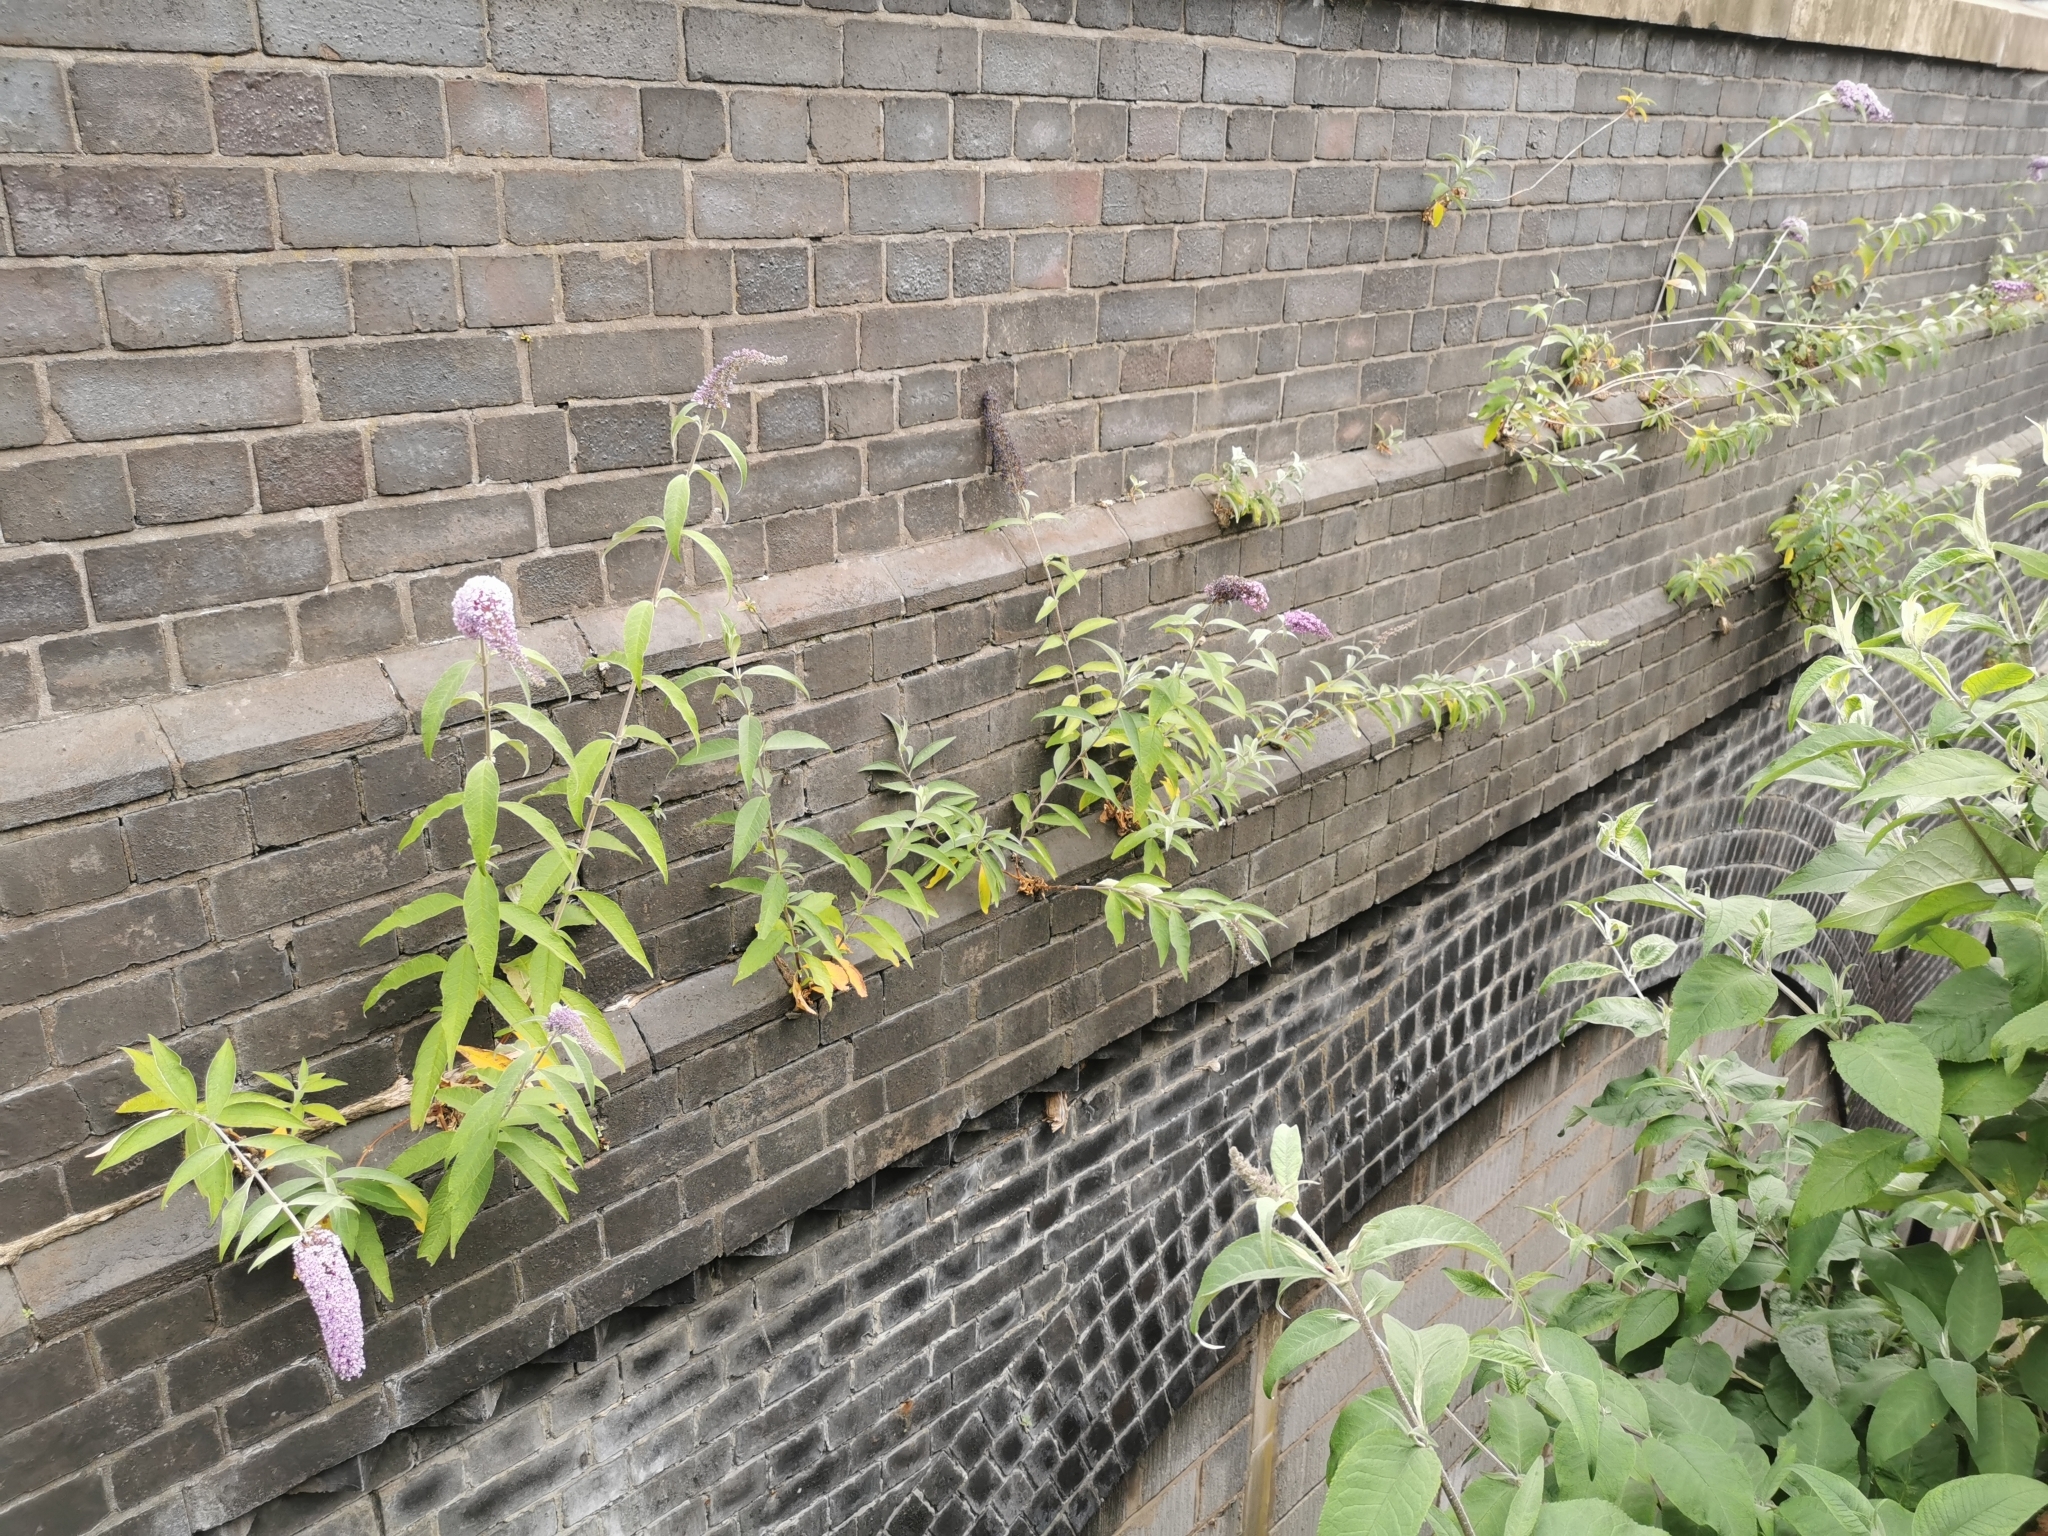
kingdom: Plantae
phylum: Tracheophyta
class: Magnoliopsida
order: Lamiales
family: Scrophulariaceae
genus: Buddleja
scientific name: Buddleja davidii
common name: Butterfly-bush
